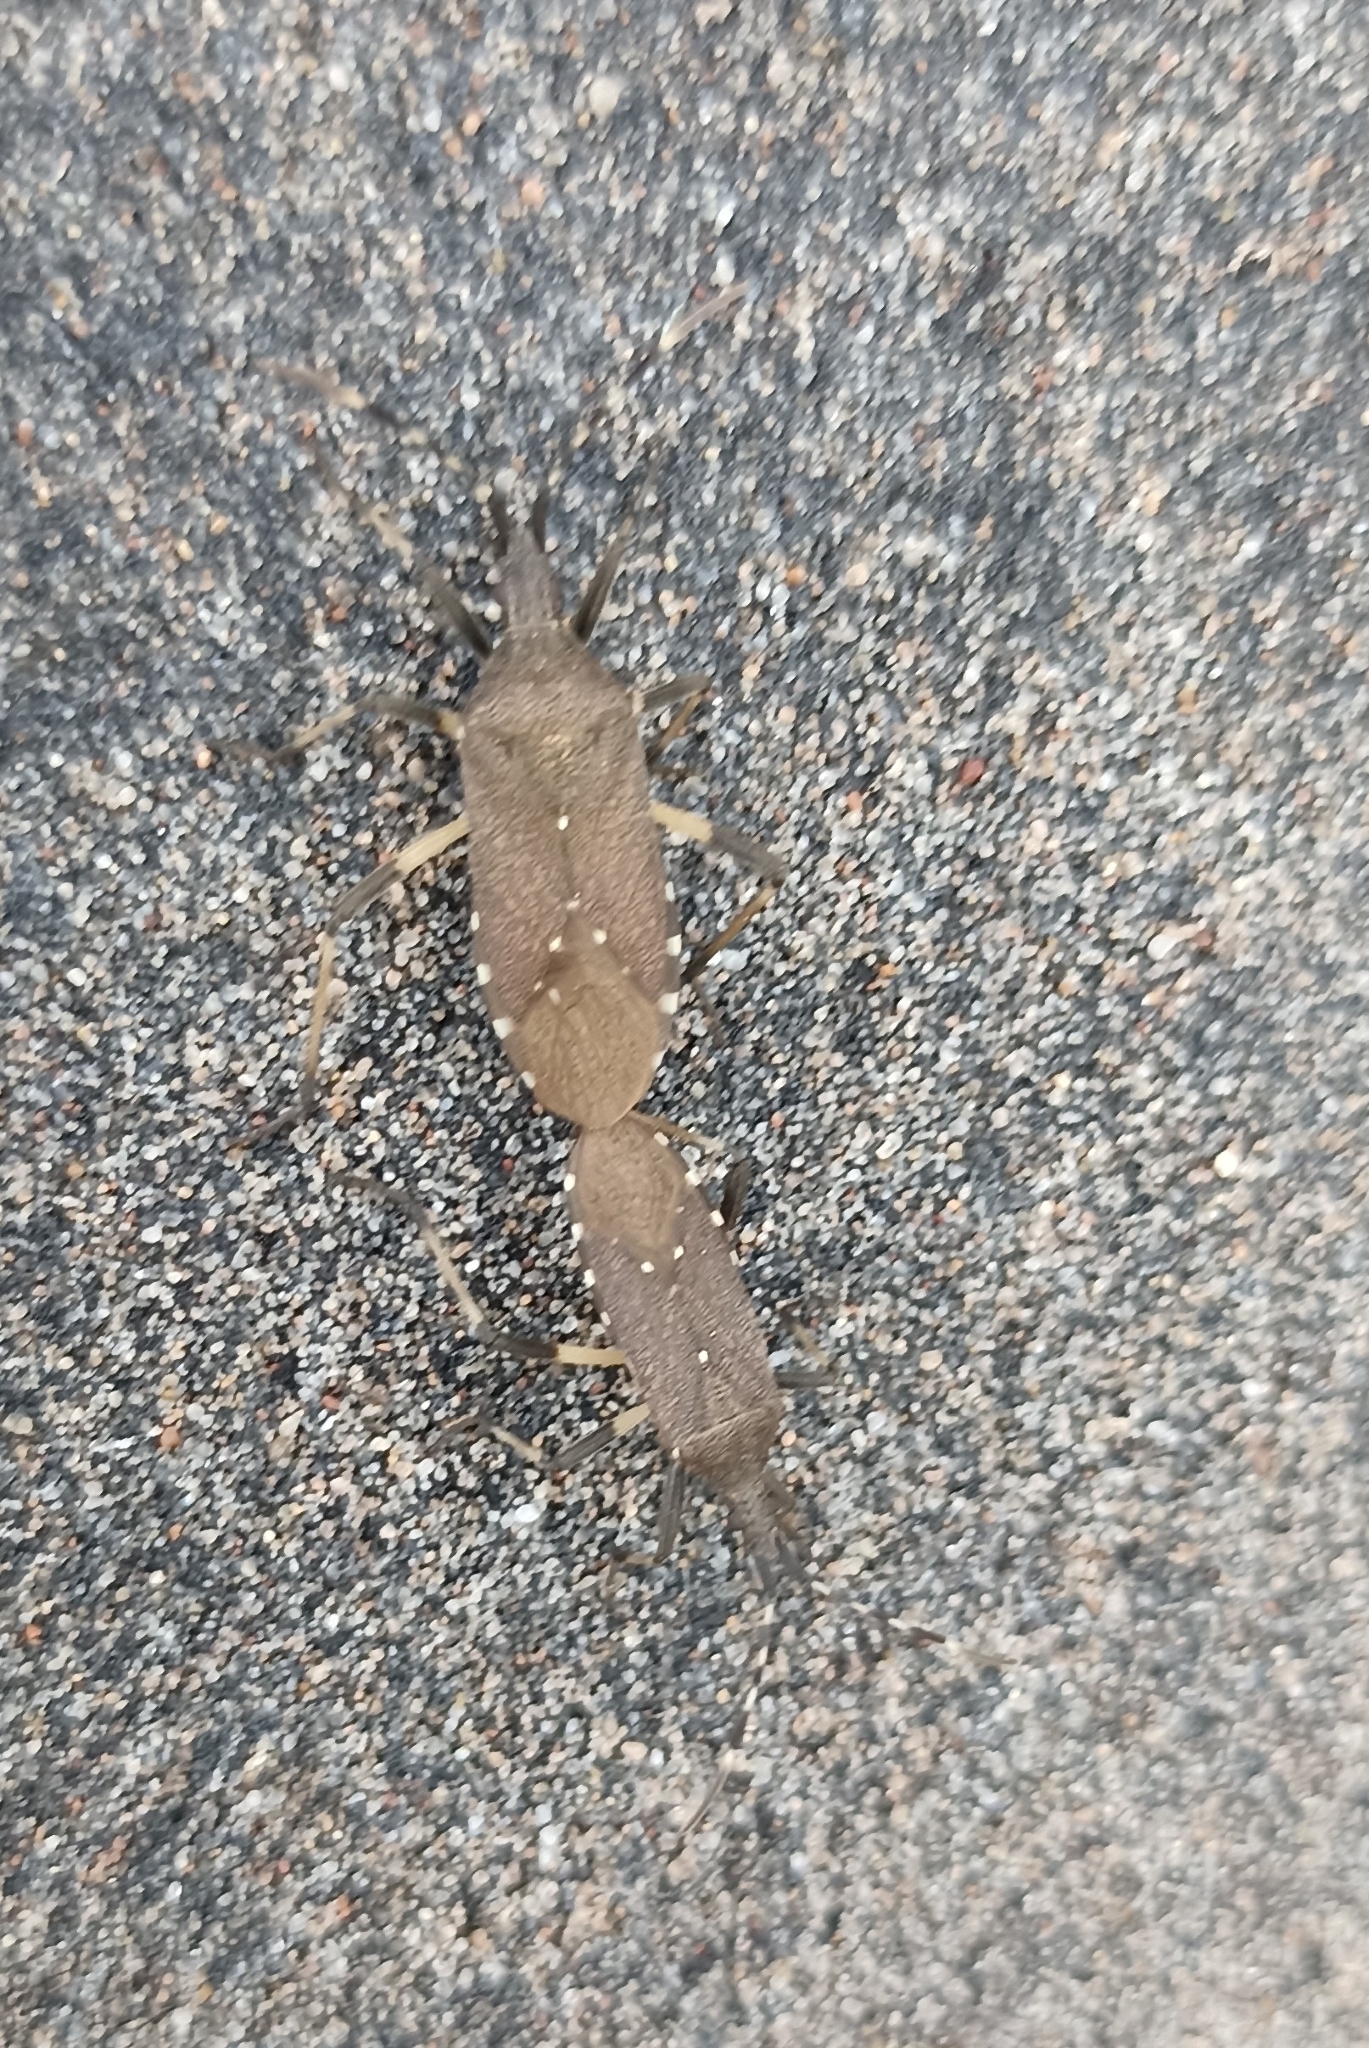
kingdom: Animalia
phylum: Arthropoda
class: Insecta
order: Hemiptera
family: Stenocephalidae
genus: Dicranocephalus
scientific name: Dicranocephalus agilis
